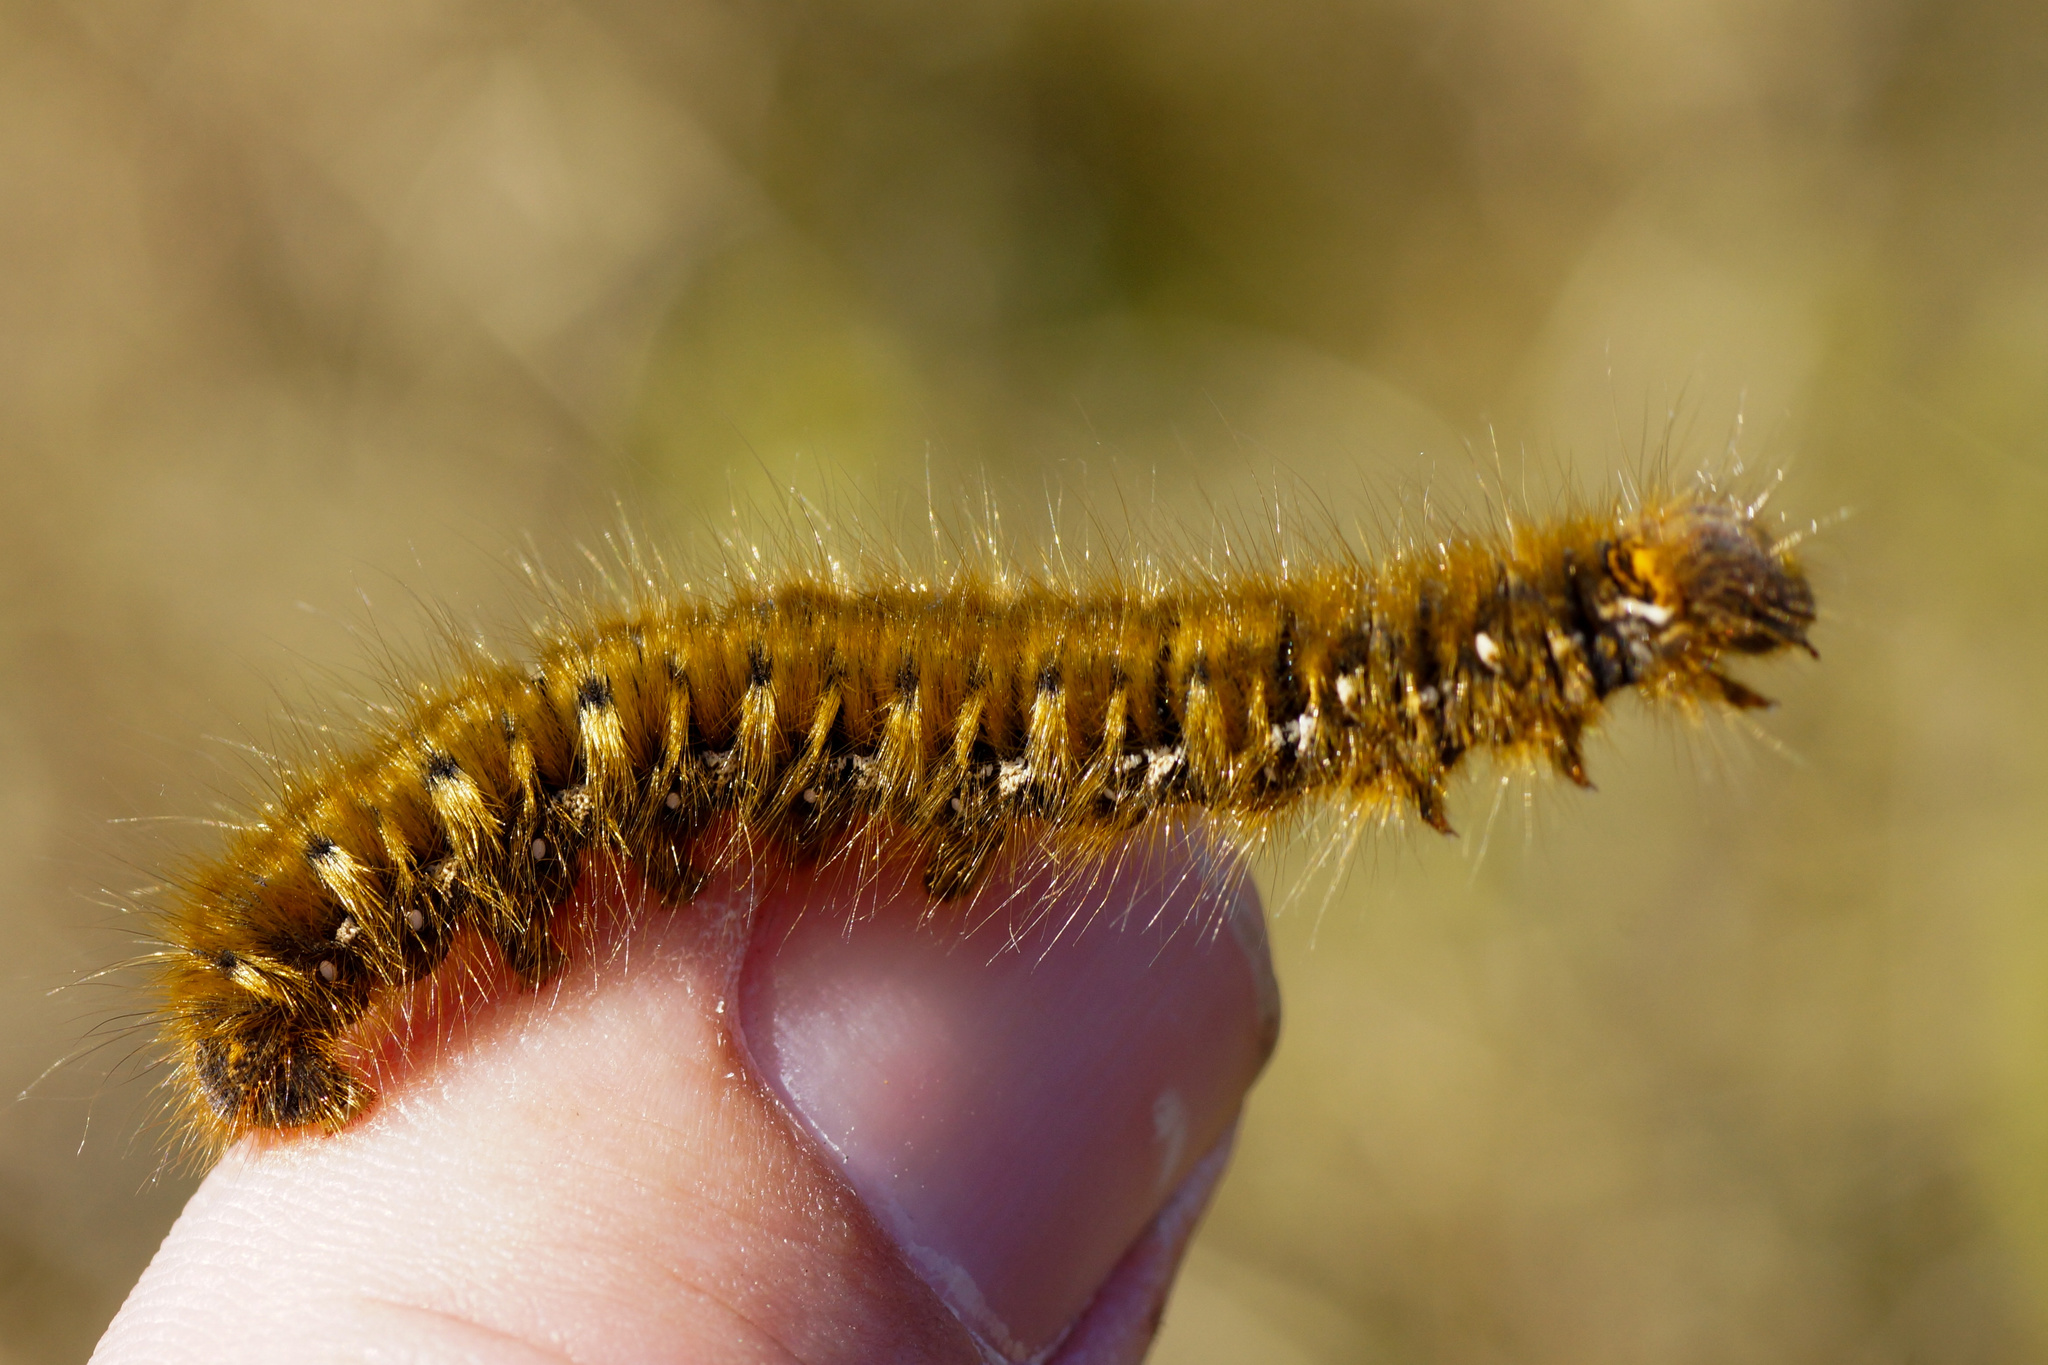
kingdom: Animalia
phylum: Arthropoda
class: Insecta
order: Lepidoptera
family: Lasiocampidae
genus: Lasiocampa
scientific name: Lasiocampa quercus
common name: Oak eggar
